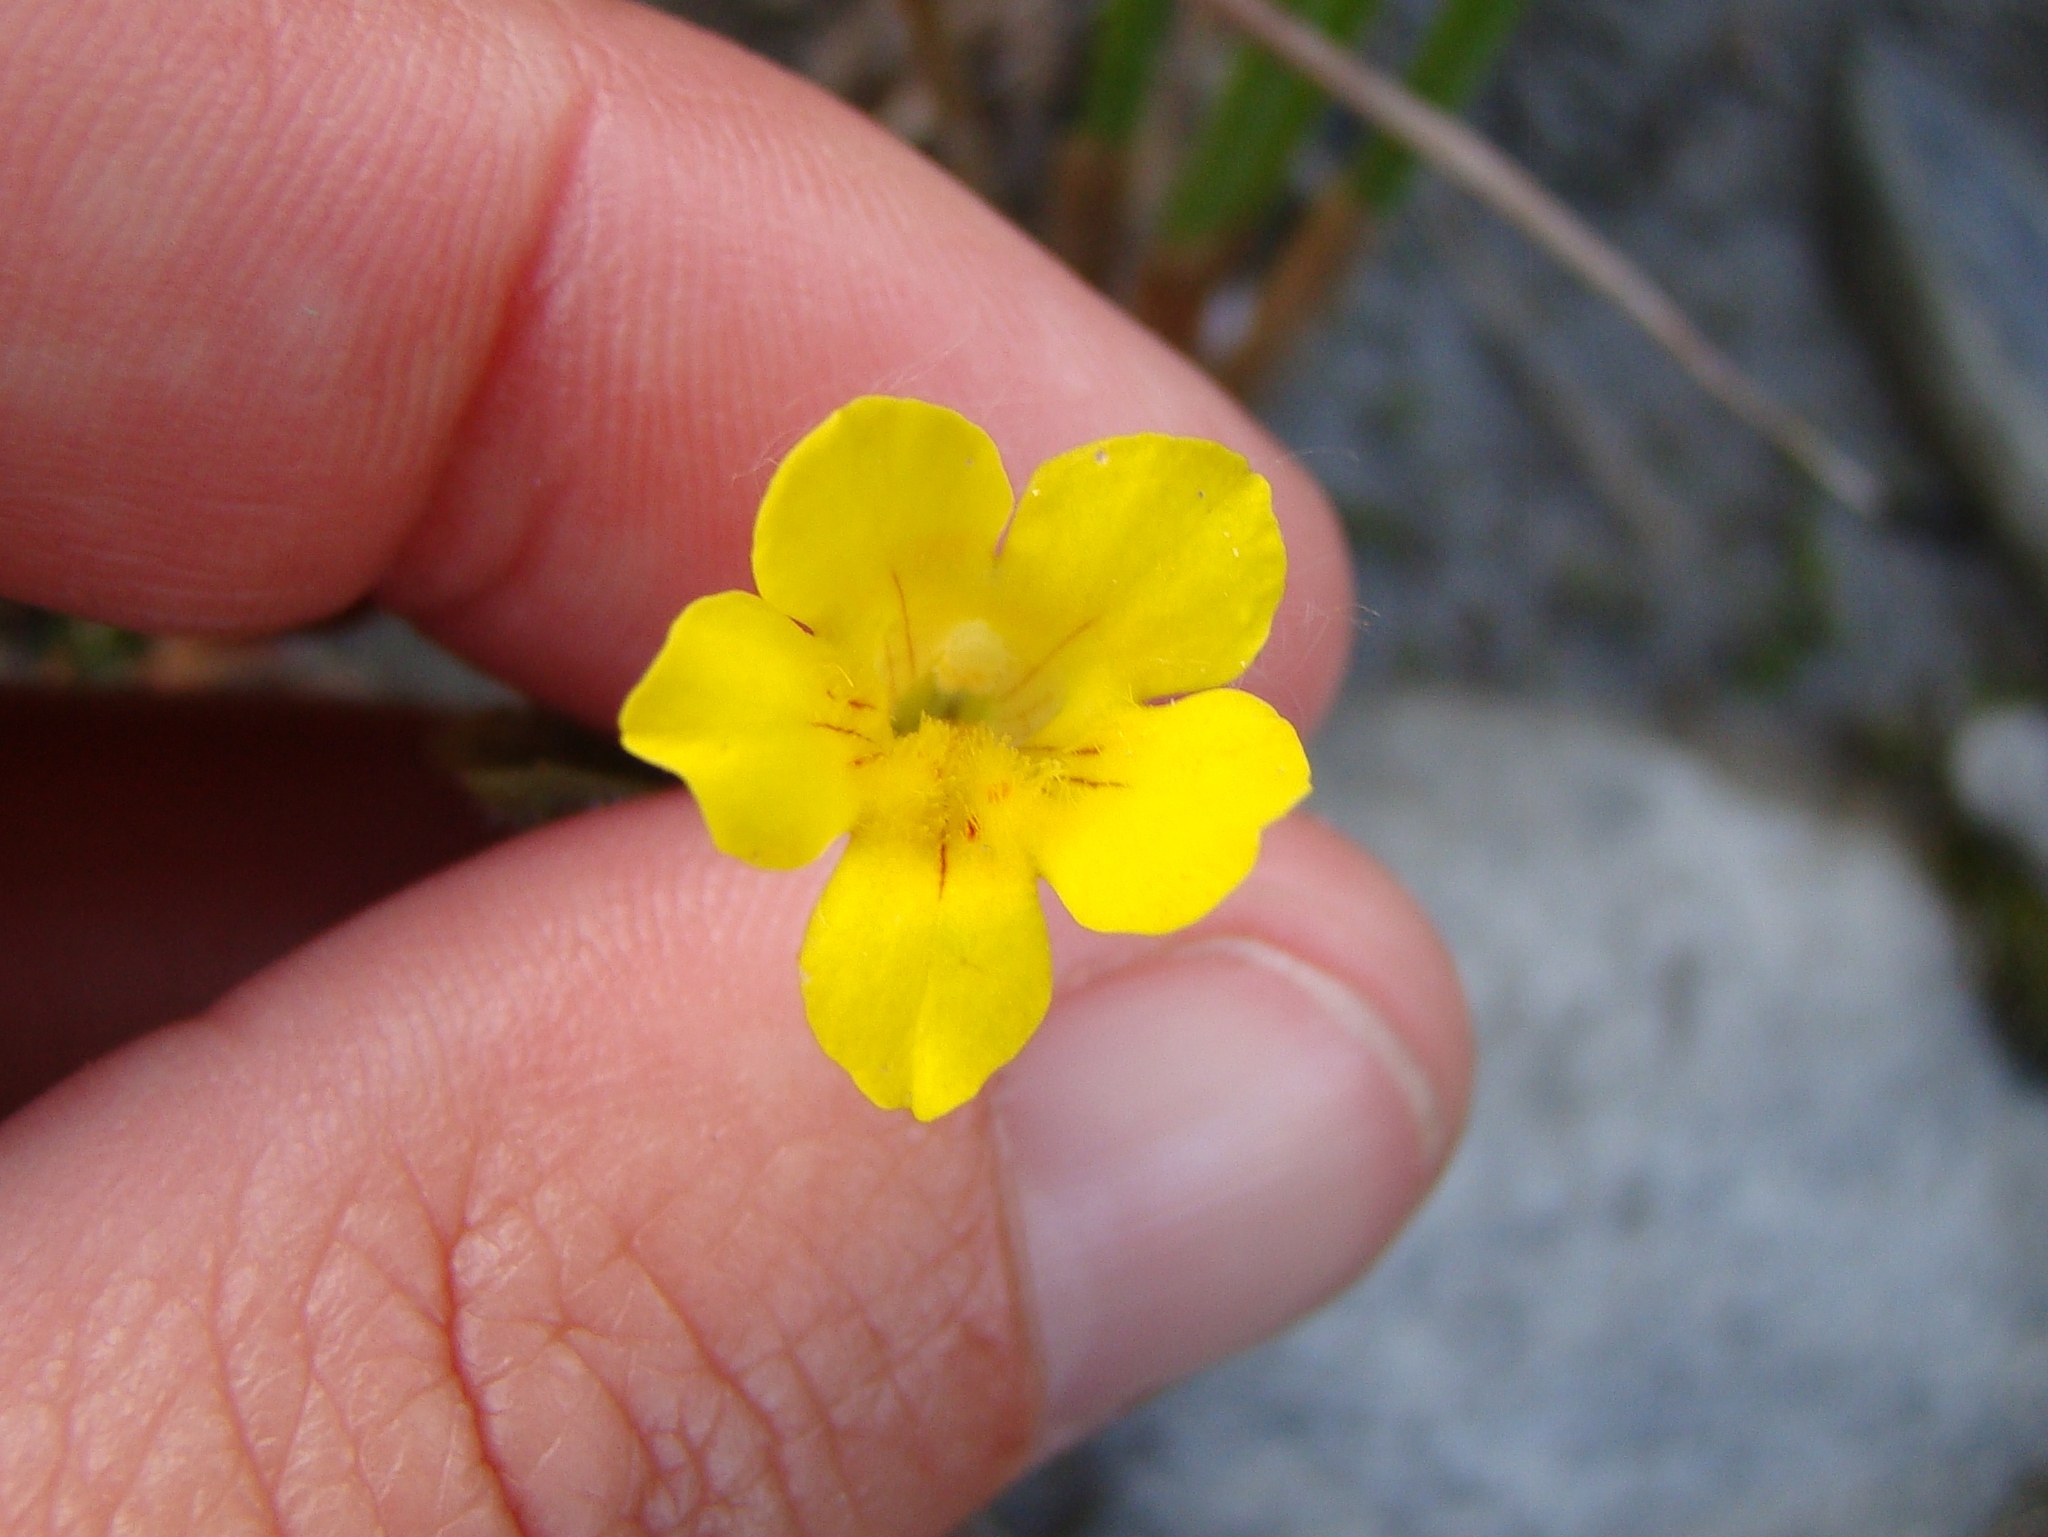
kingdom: Plantae
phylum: Tracheophyta
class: Magnoliopsida
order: Lamiales
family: Phrymaceae
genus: Erythranthe
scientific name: Erythranthe moschata
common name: Muskflower
